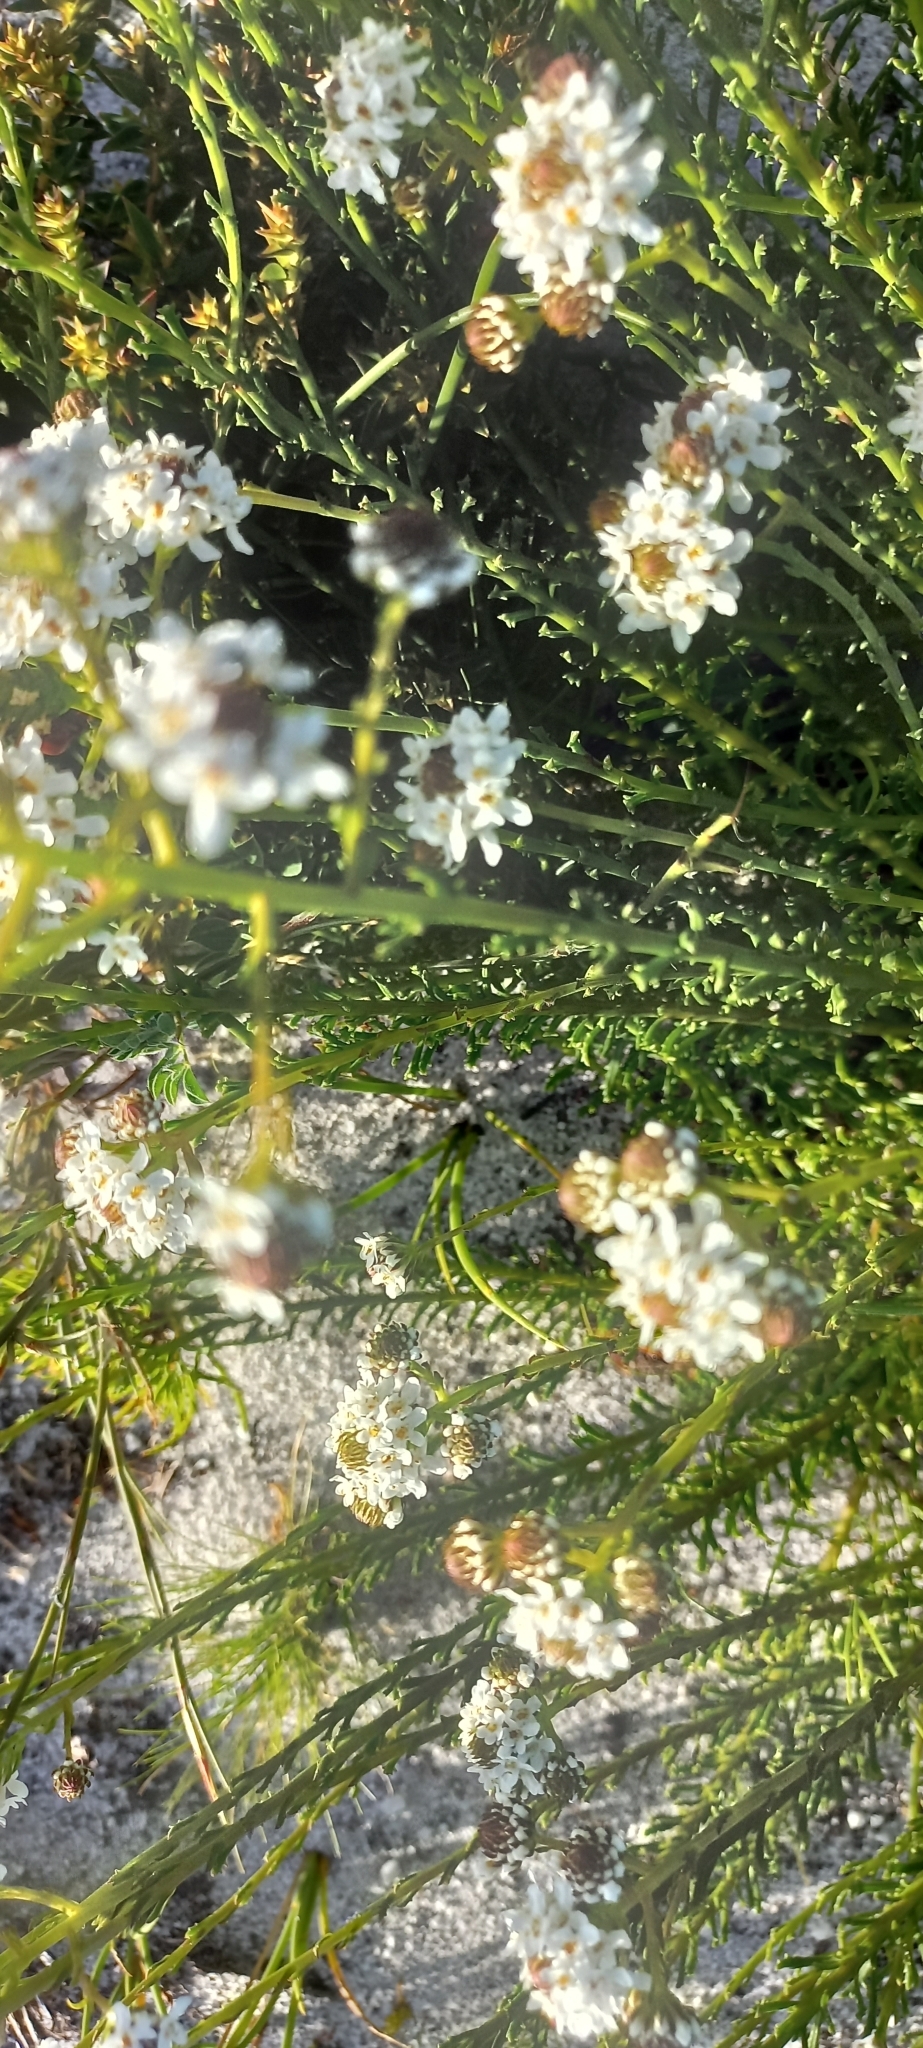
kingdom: Plantae
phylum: Tracheophyta
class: Magnoliopsida
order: Lamiales
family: Scrophulariaceae
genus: Pseudoselago
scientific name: Pseudoselago spuria
